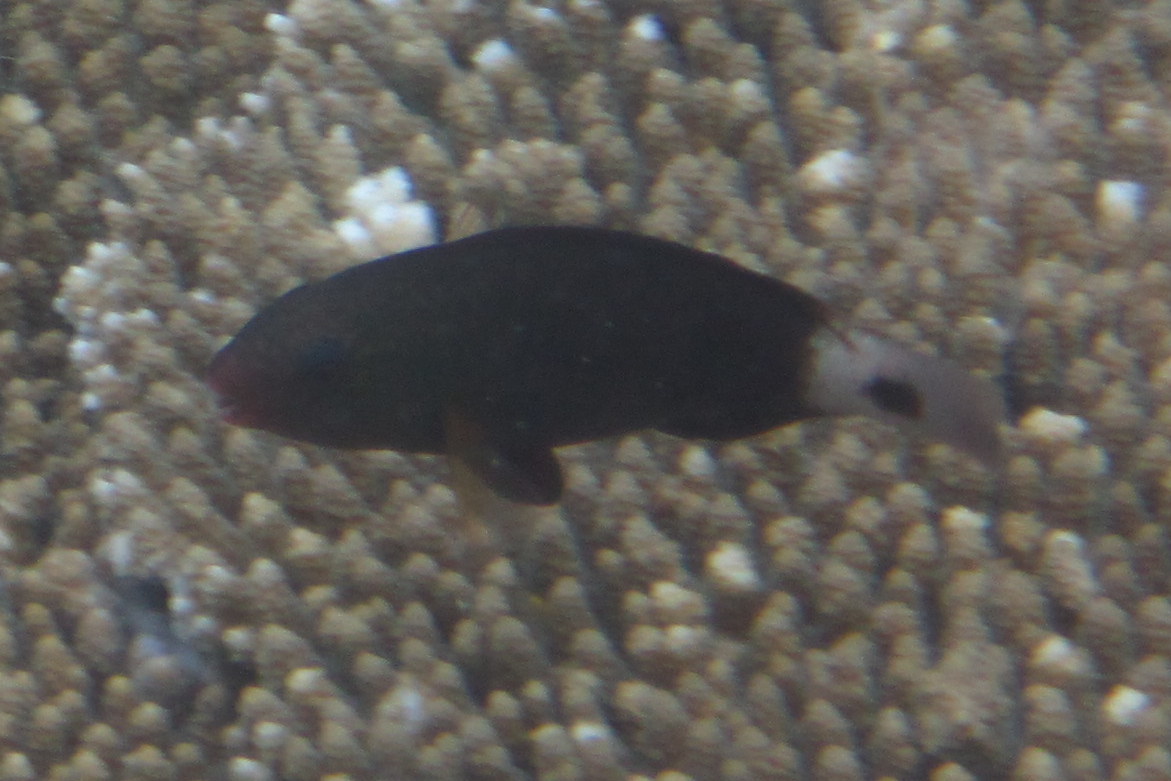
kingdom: Animalia
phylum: Chordata
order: Perciformes
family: Scaridae
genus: Chlorurus
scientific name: Chlorurus spilurus
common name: Bullethead parrotfish
